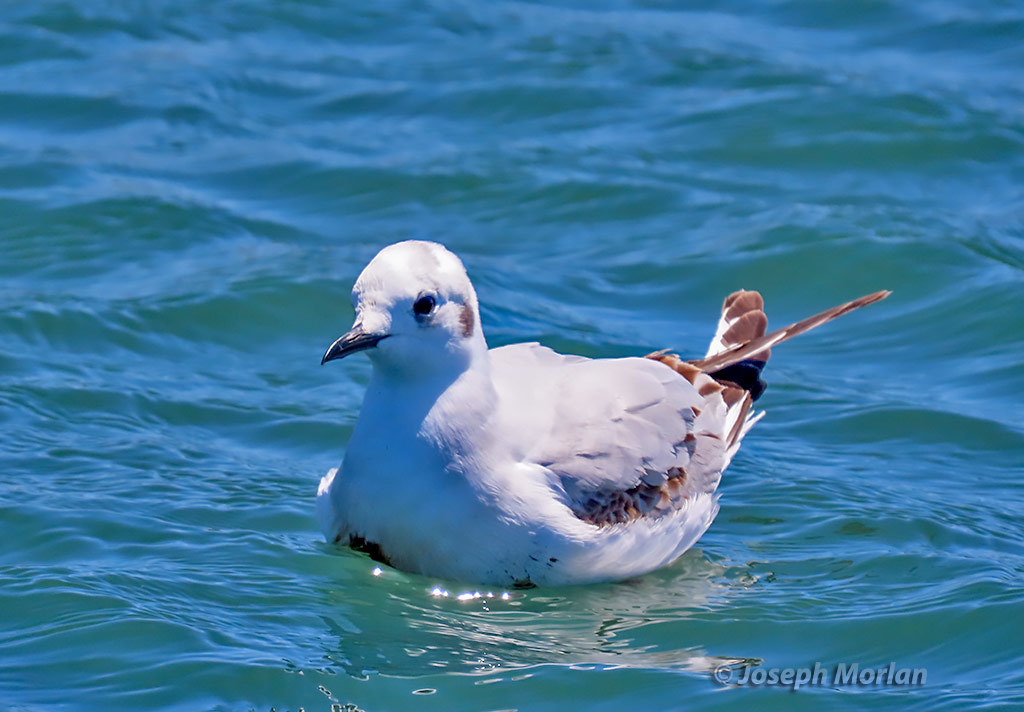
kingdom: Animalia
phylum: Chordata
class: Aves
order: Charadriiformes
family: Laridae
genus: Chroicocephalus
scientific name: Chroicocephalus philadelphia
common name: Bonaparte's gull
